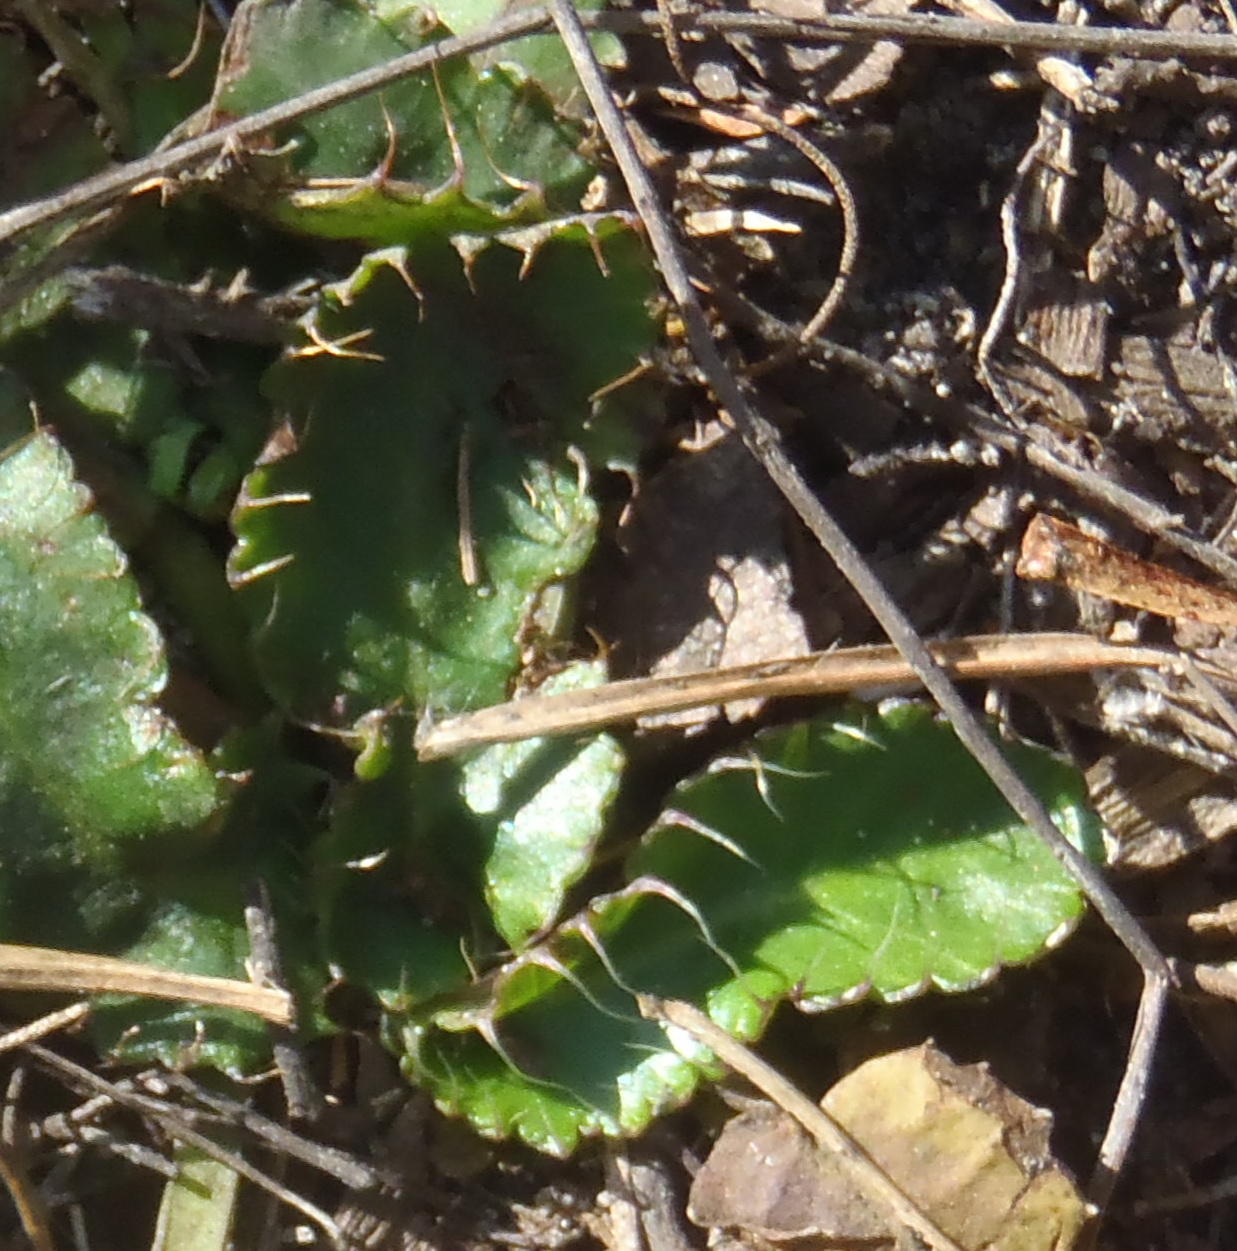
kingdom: Plantae
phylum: Tracheophyta
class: Magnoliopsida
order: Apiales
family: Apiaceae
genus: Alepidea
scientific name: Alepidea capensis
